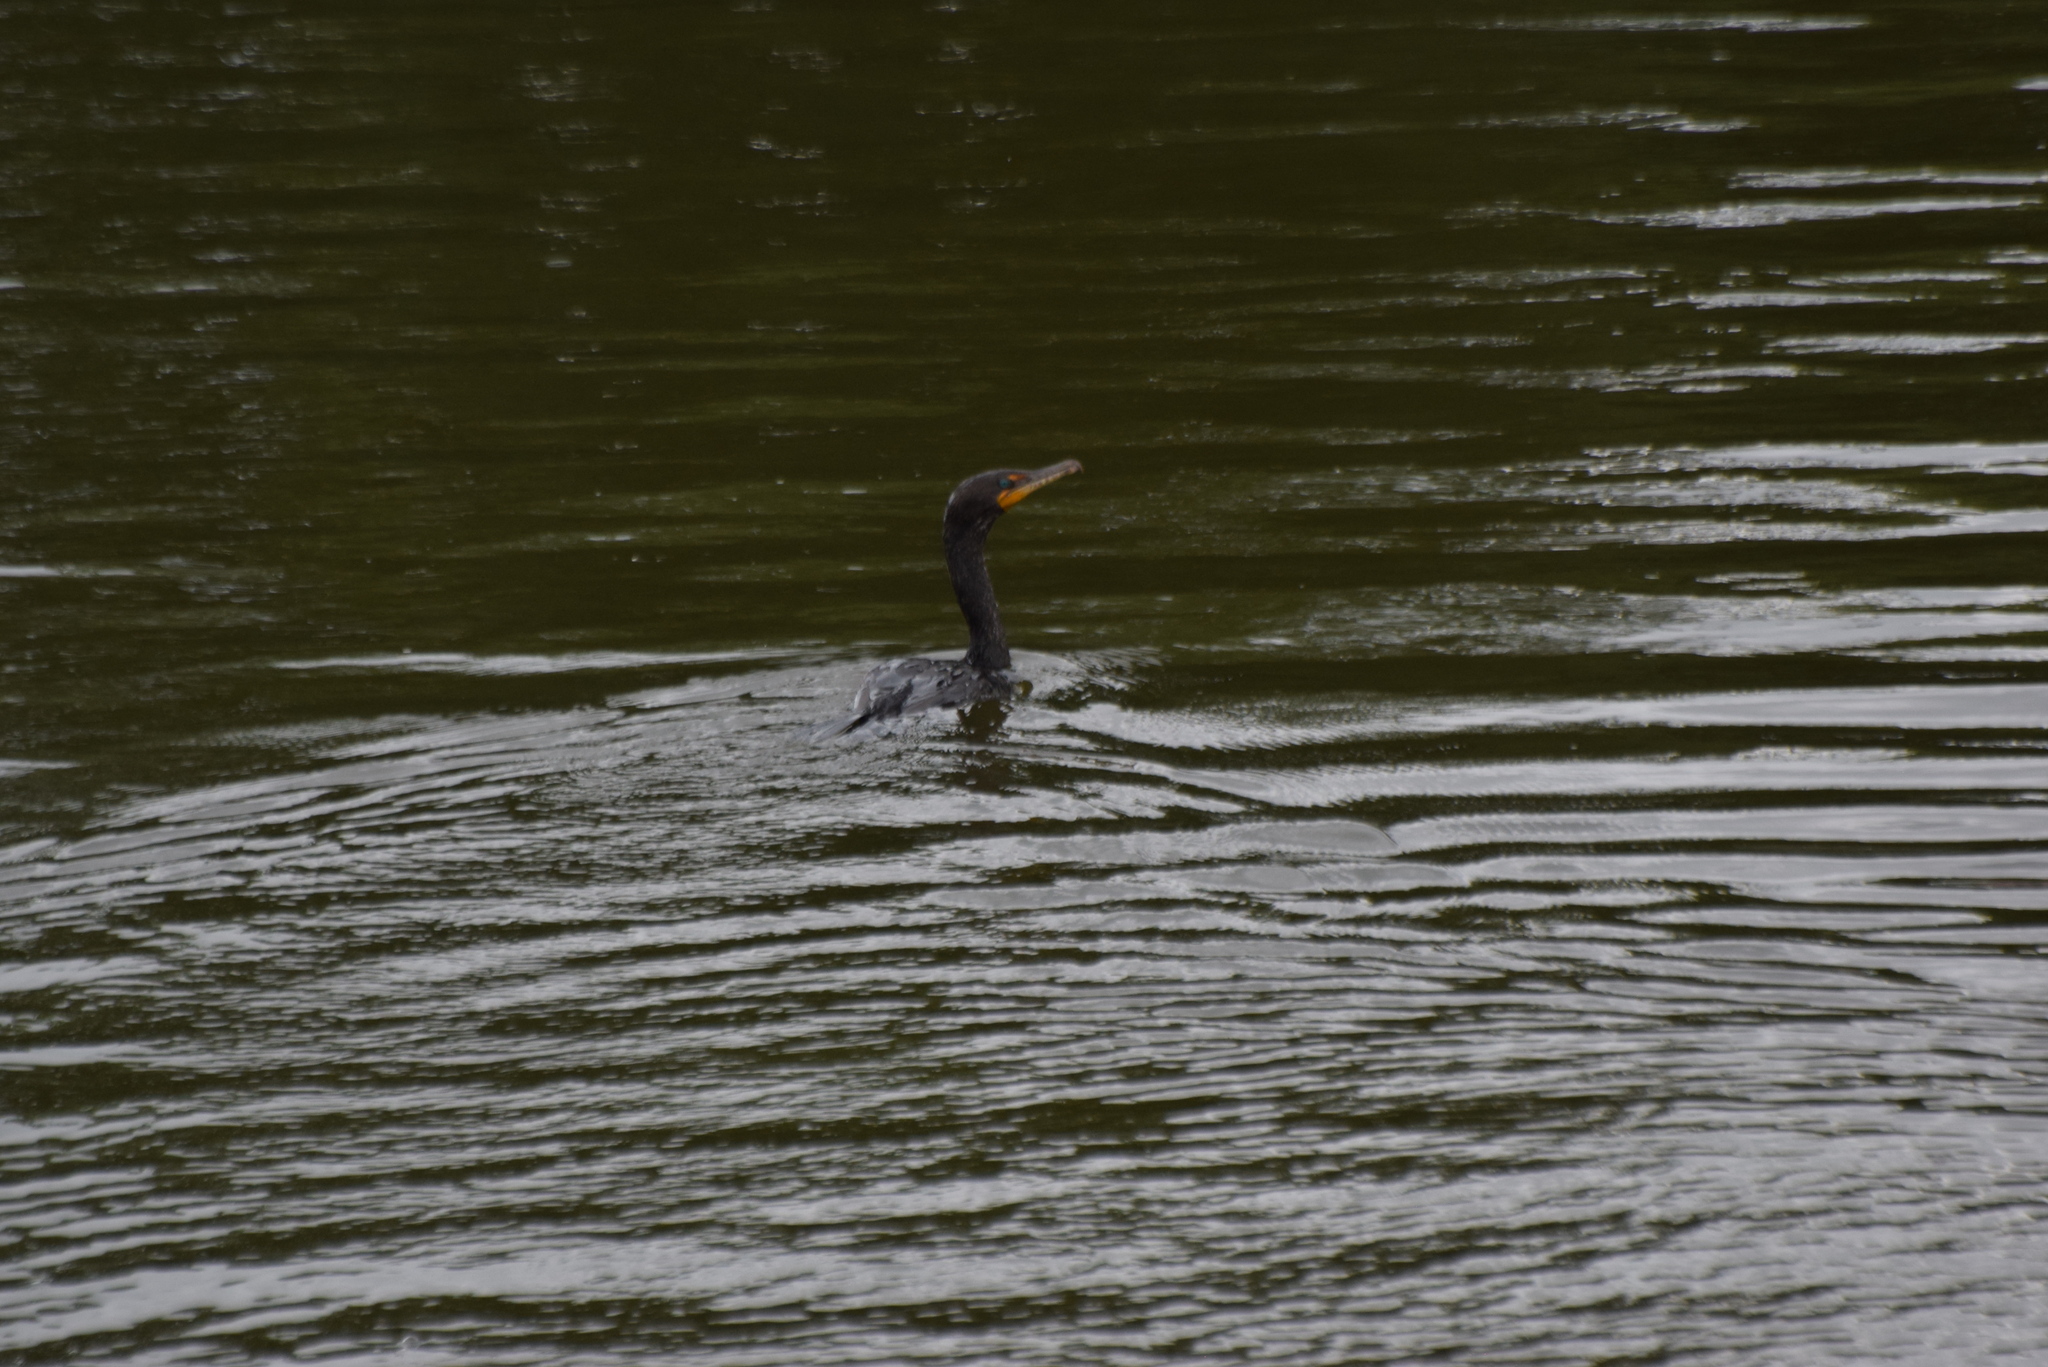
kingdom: Animalia
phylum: Chordata
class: Aves
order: Suliformes
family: Phalacrocoracidae
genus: Phalacrocorax
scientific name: Phalacrocorax auritus
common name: Double-crested cormorant
